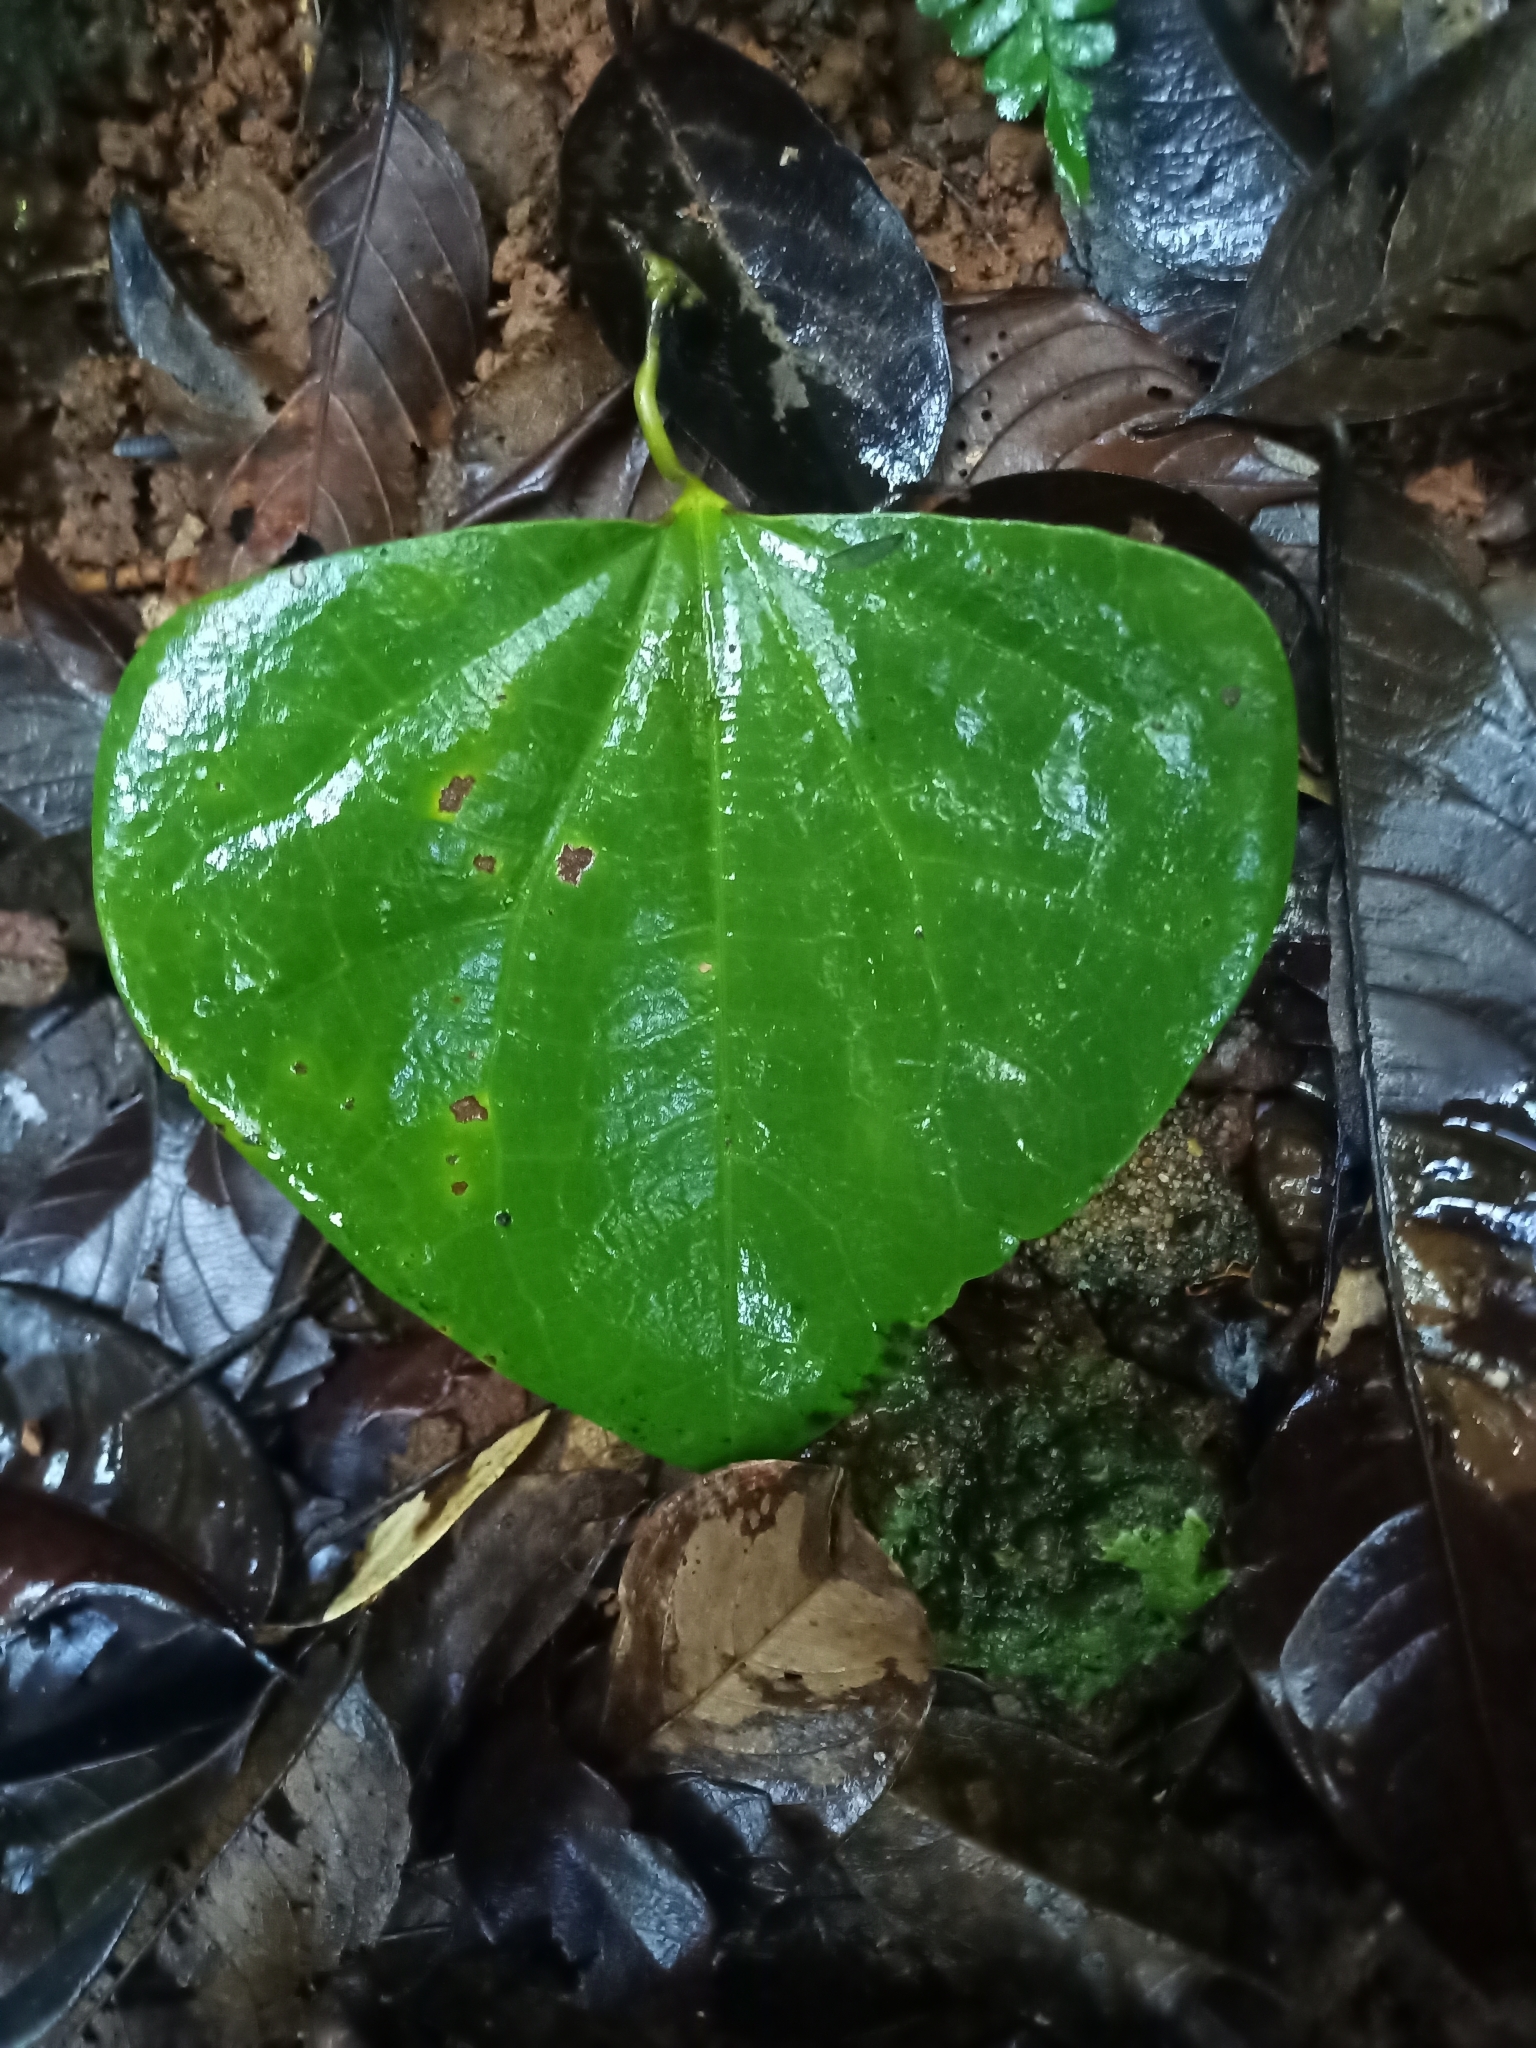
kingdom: Plantae
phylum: Tracheophyta
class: Magnoliopsida
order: Piperales
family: Aristolochiaceae
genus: Aristolochia
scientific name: Aristolochia
